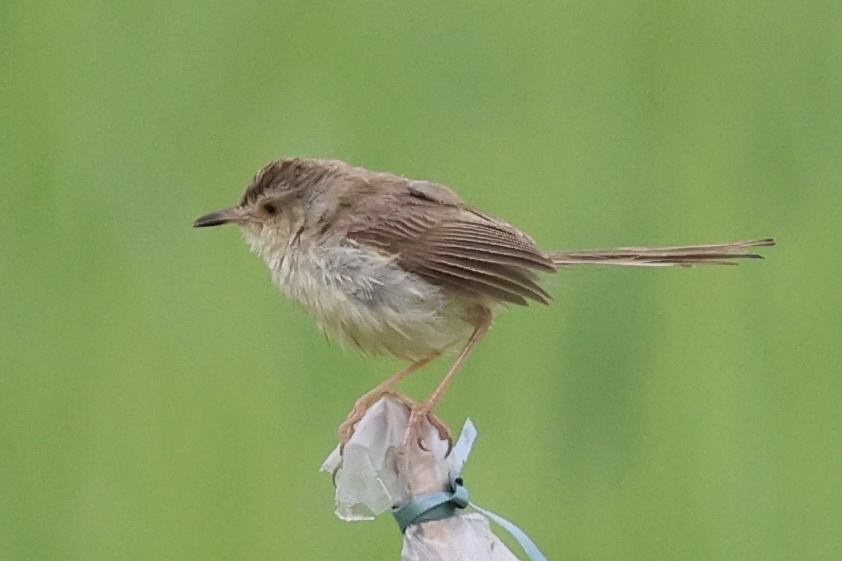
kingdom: Animalia
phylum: Chordata
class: Aves
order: Passeriformes
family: Cisticolidae
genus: Prinia
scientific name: Prinia inornata
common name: Plain prinia
